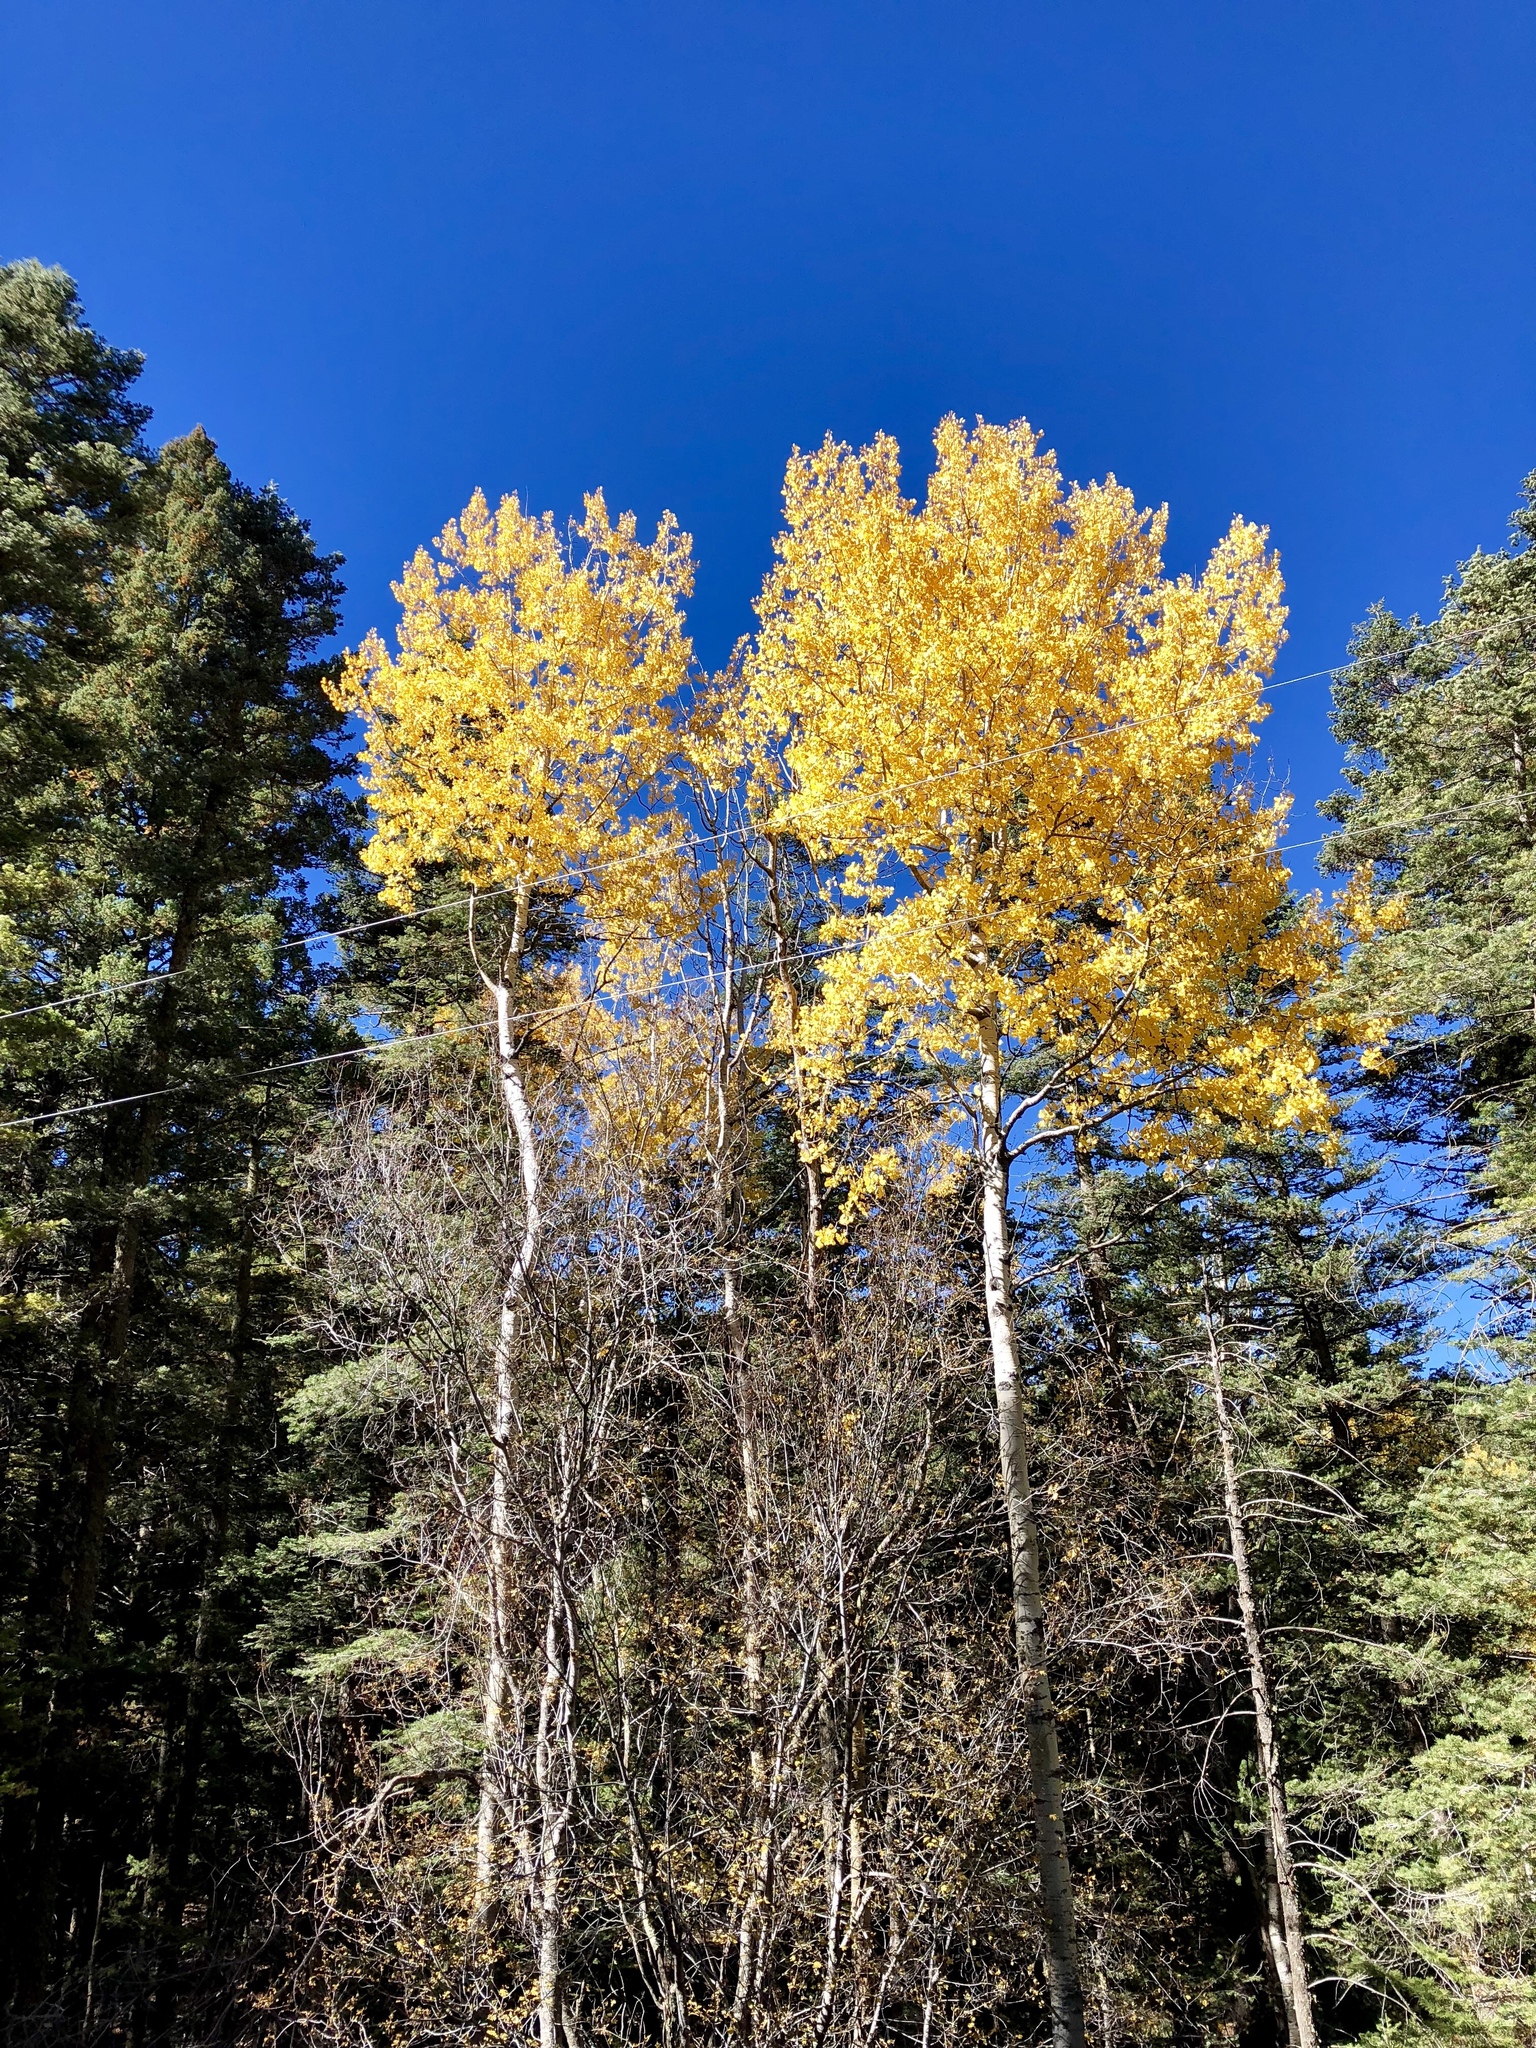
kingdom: Plantae
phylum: Tracheophyta
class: Magnoliopsida
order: Malpighiales
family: Salicaceae
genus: Populus
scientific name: Populus tremuloides
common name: Quaking aspen
